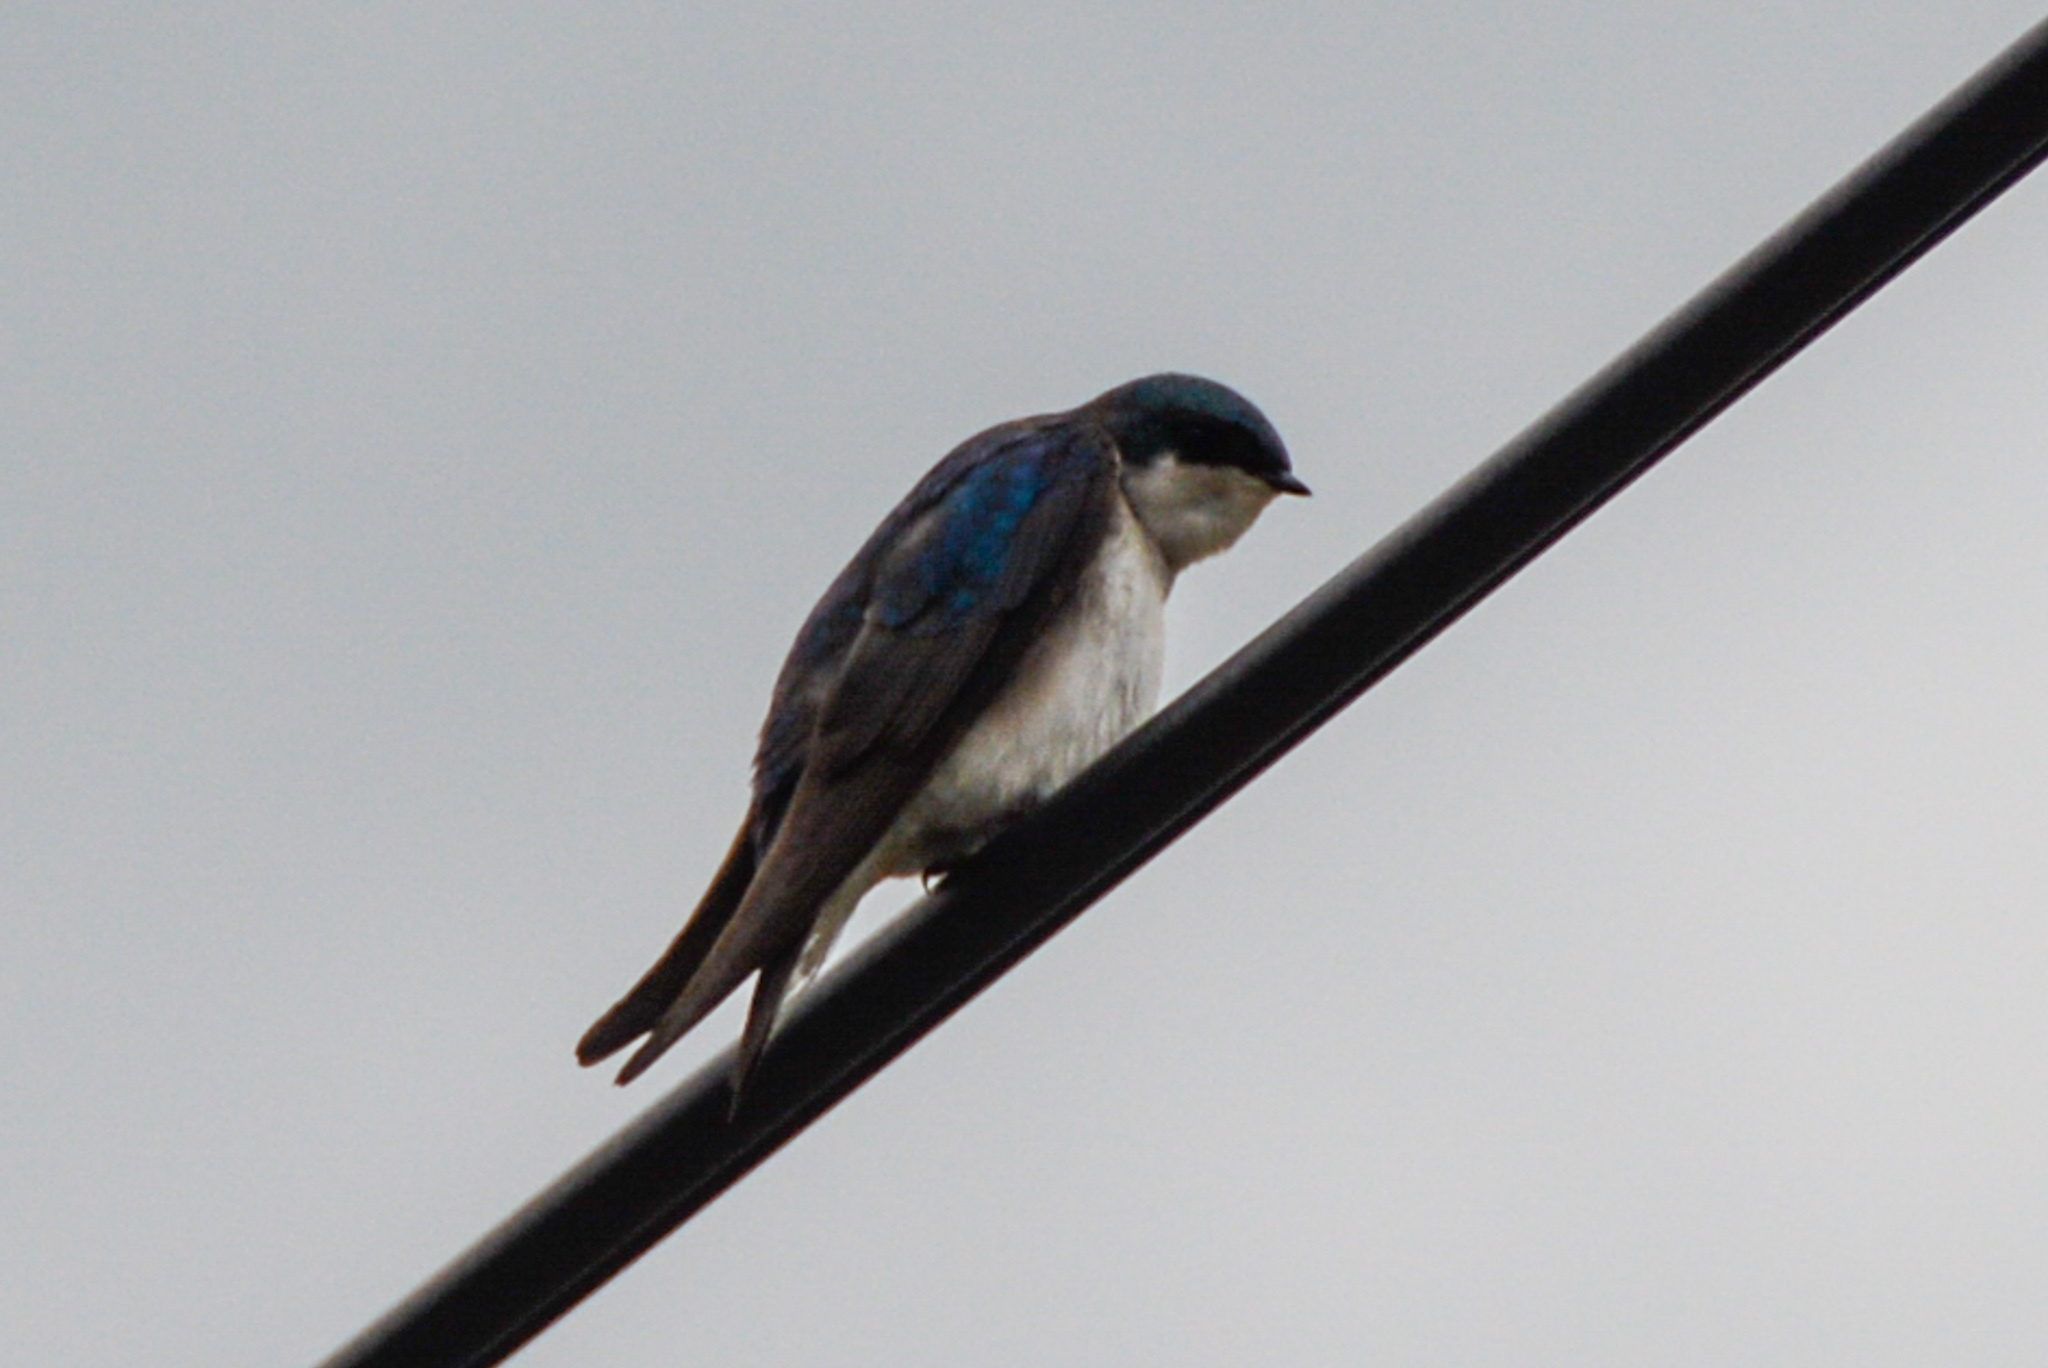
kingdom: Animalia
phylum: Chordata
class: Aves
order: Passeriformes
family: Hirundinidae
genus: Tachycineta
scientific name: Tachycineta bicolor
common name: Tree swallow
